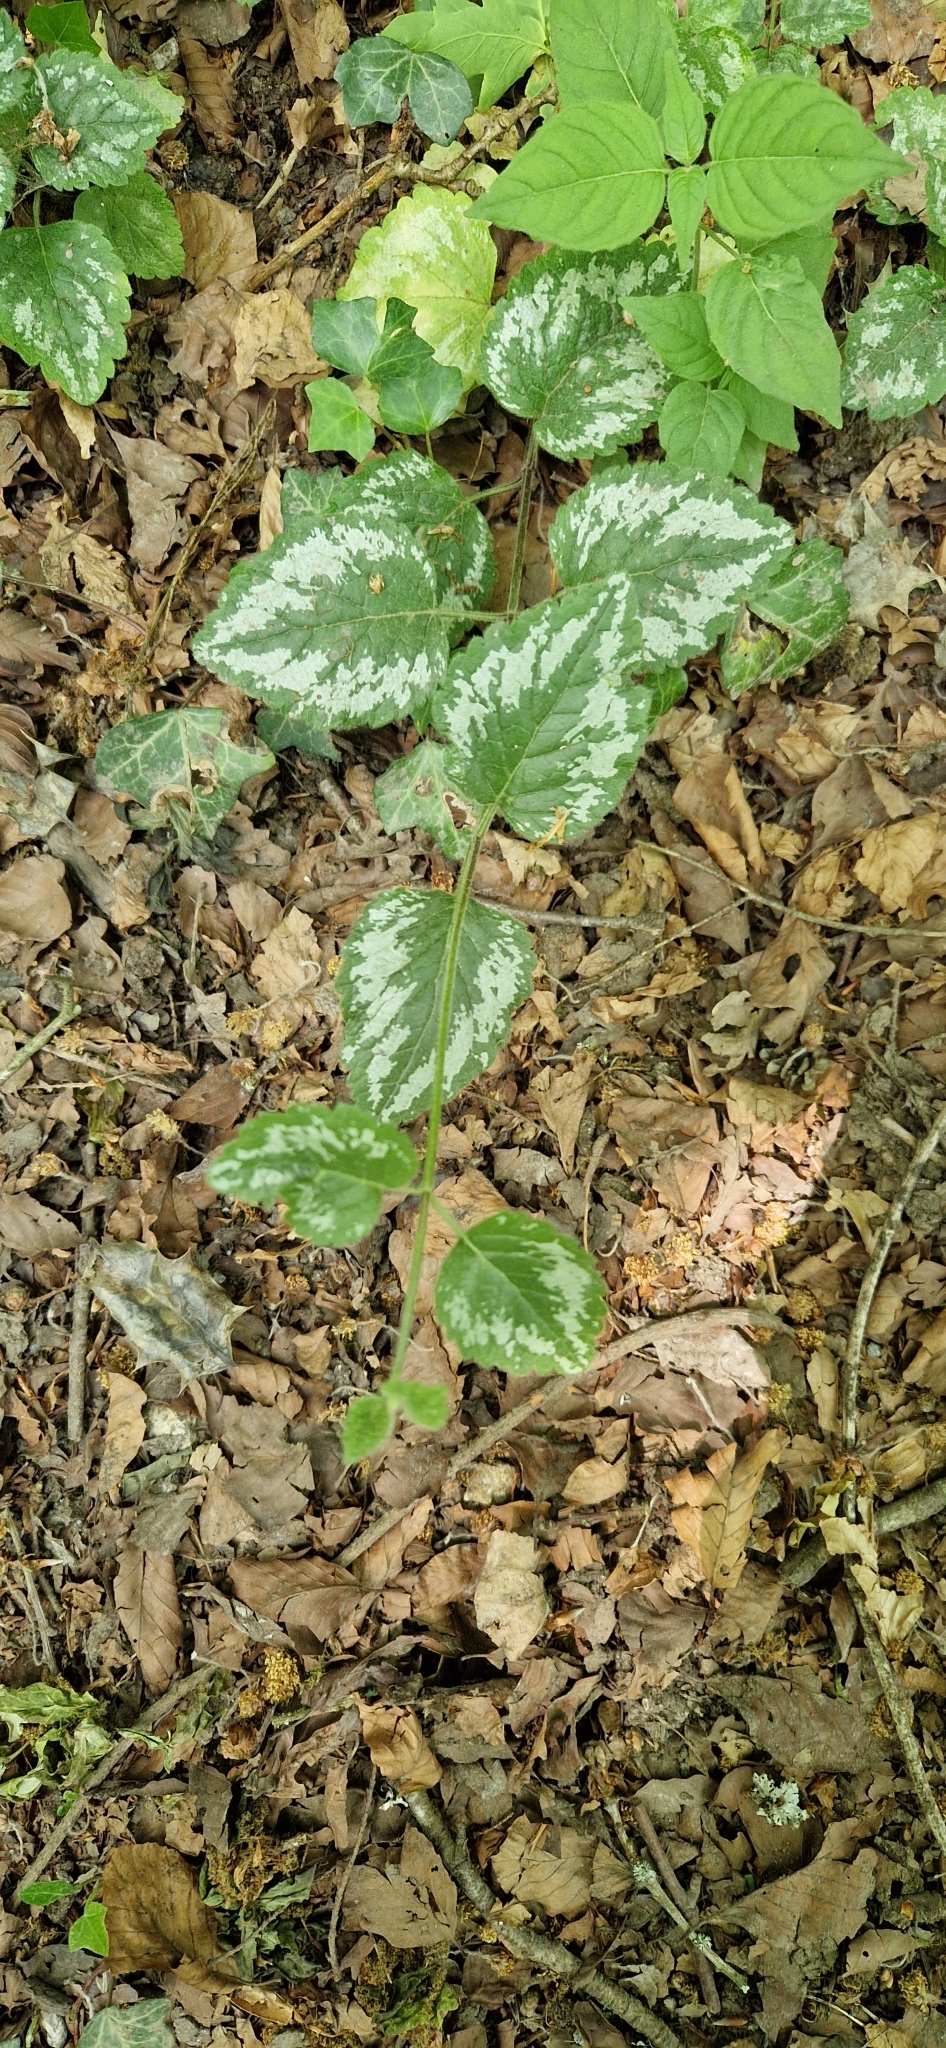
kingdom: Plantae
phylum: Tracheophyta
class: Magnoliopsida
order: Lamiales
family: Lamiaceae
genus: Lamium
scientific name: Lamium galeobdolon
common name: Yellow archangel
